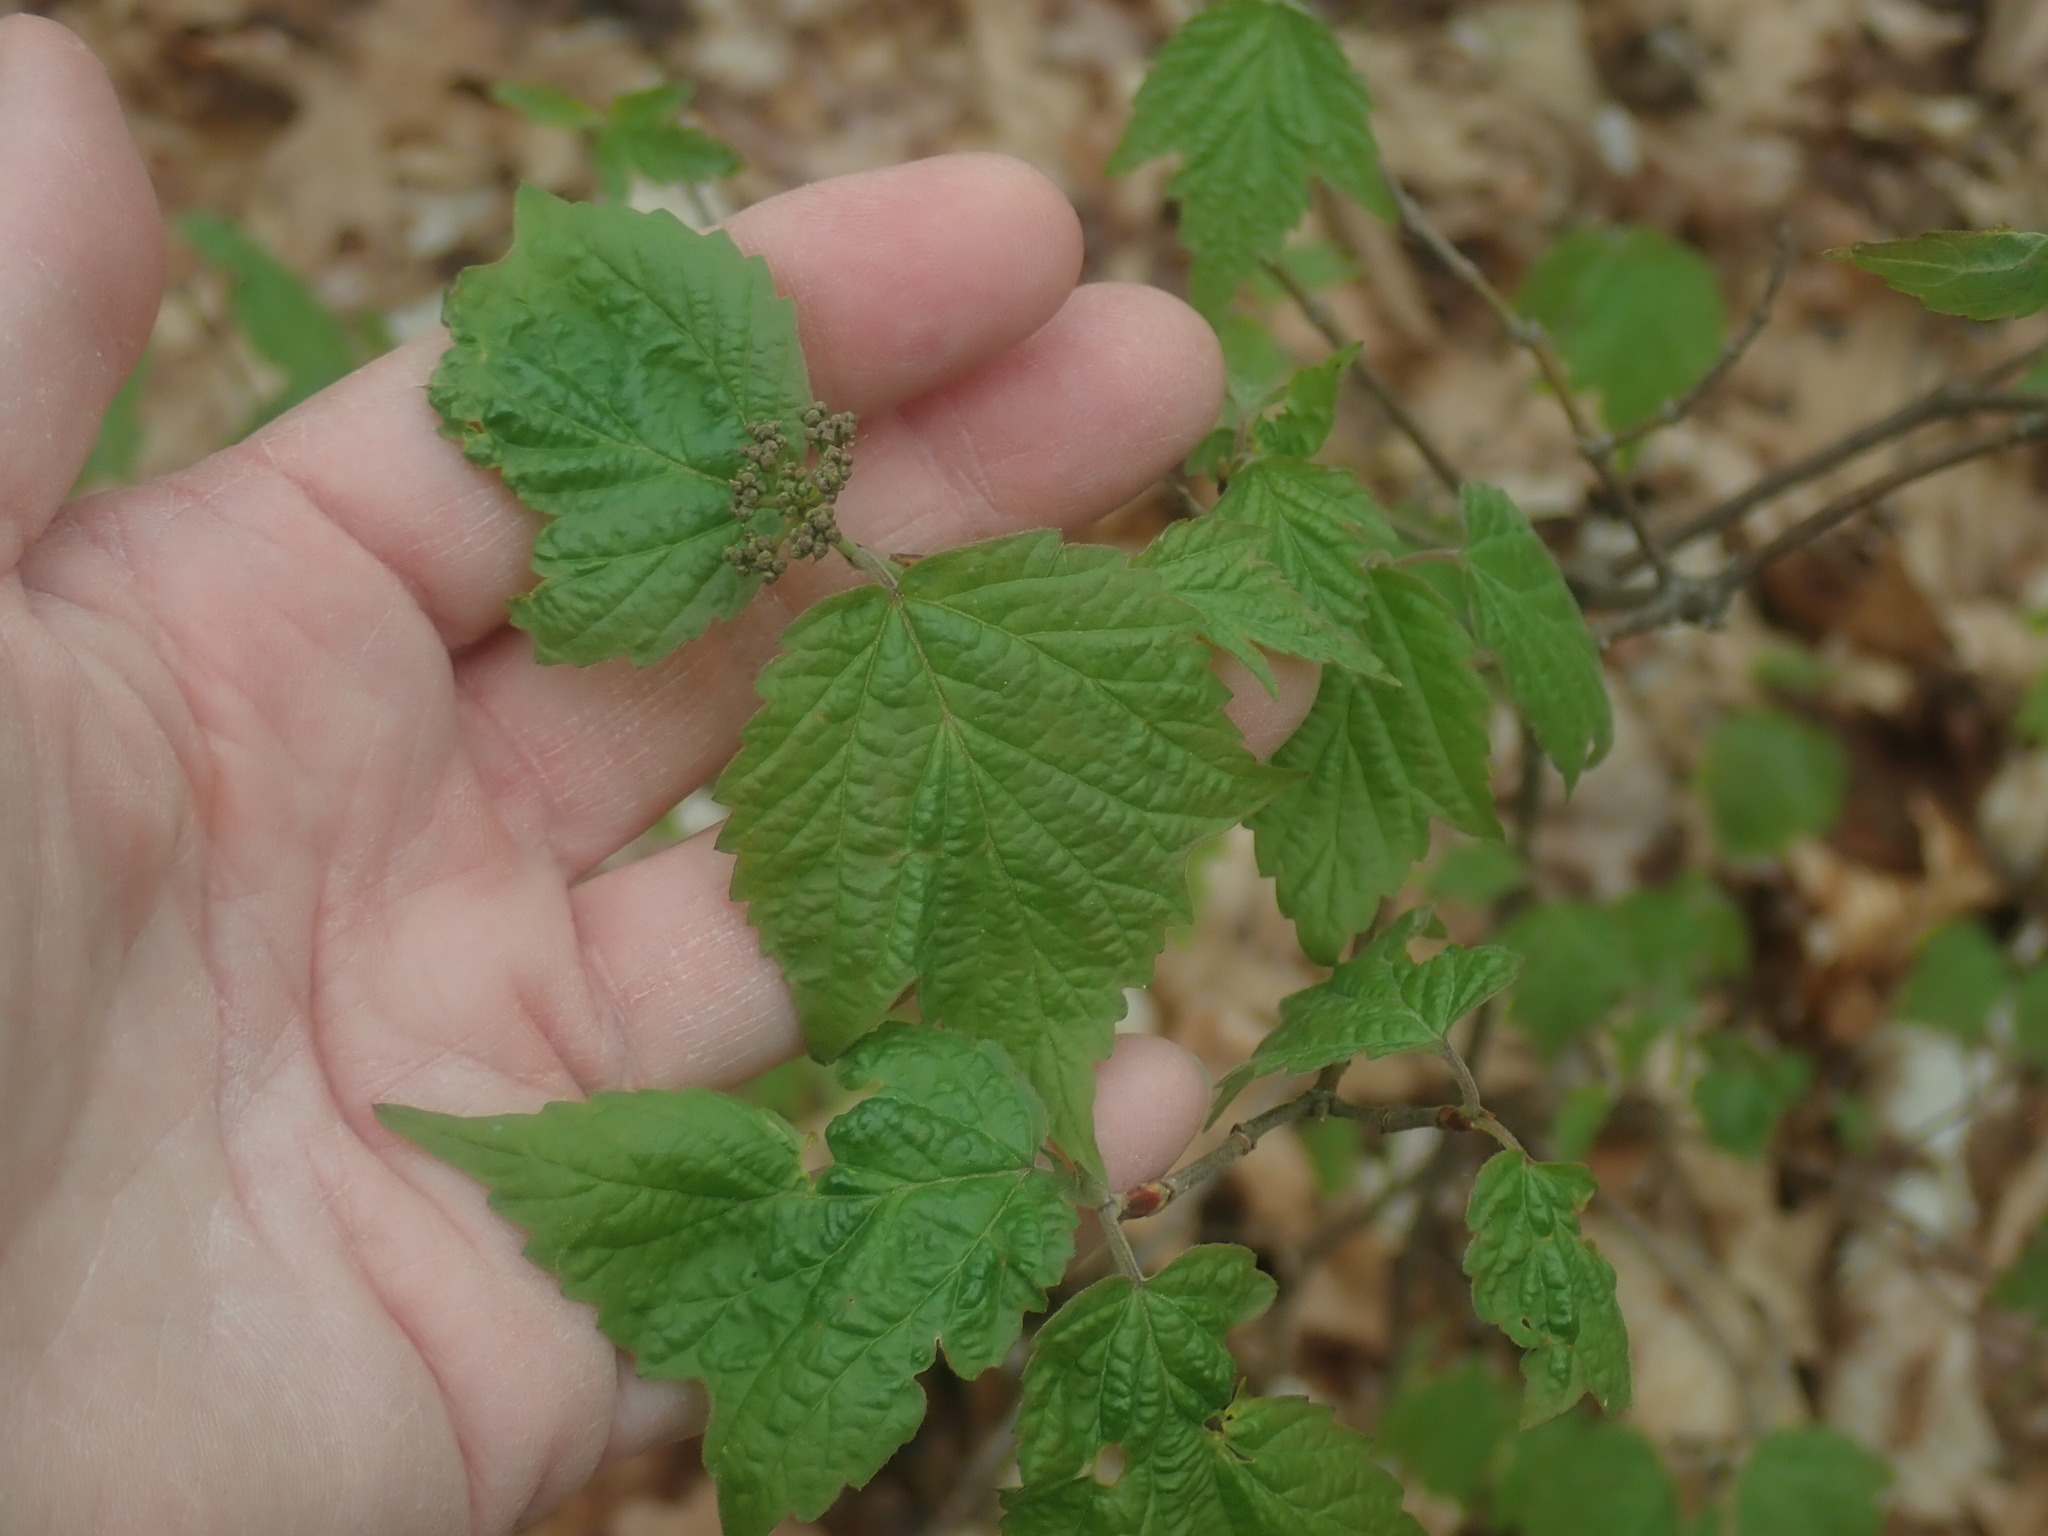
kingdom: Plantae
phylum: Tracheophyta
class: Magnoliopsida
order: Dipsacales
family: Viburnaceae
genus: Viburnum
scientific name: Viburnum acerifolium
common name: Dockmackie
